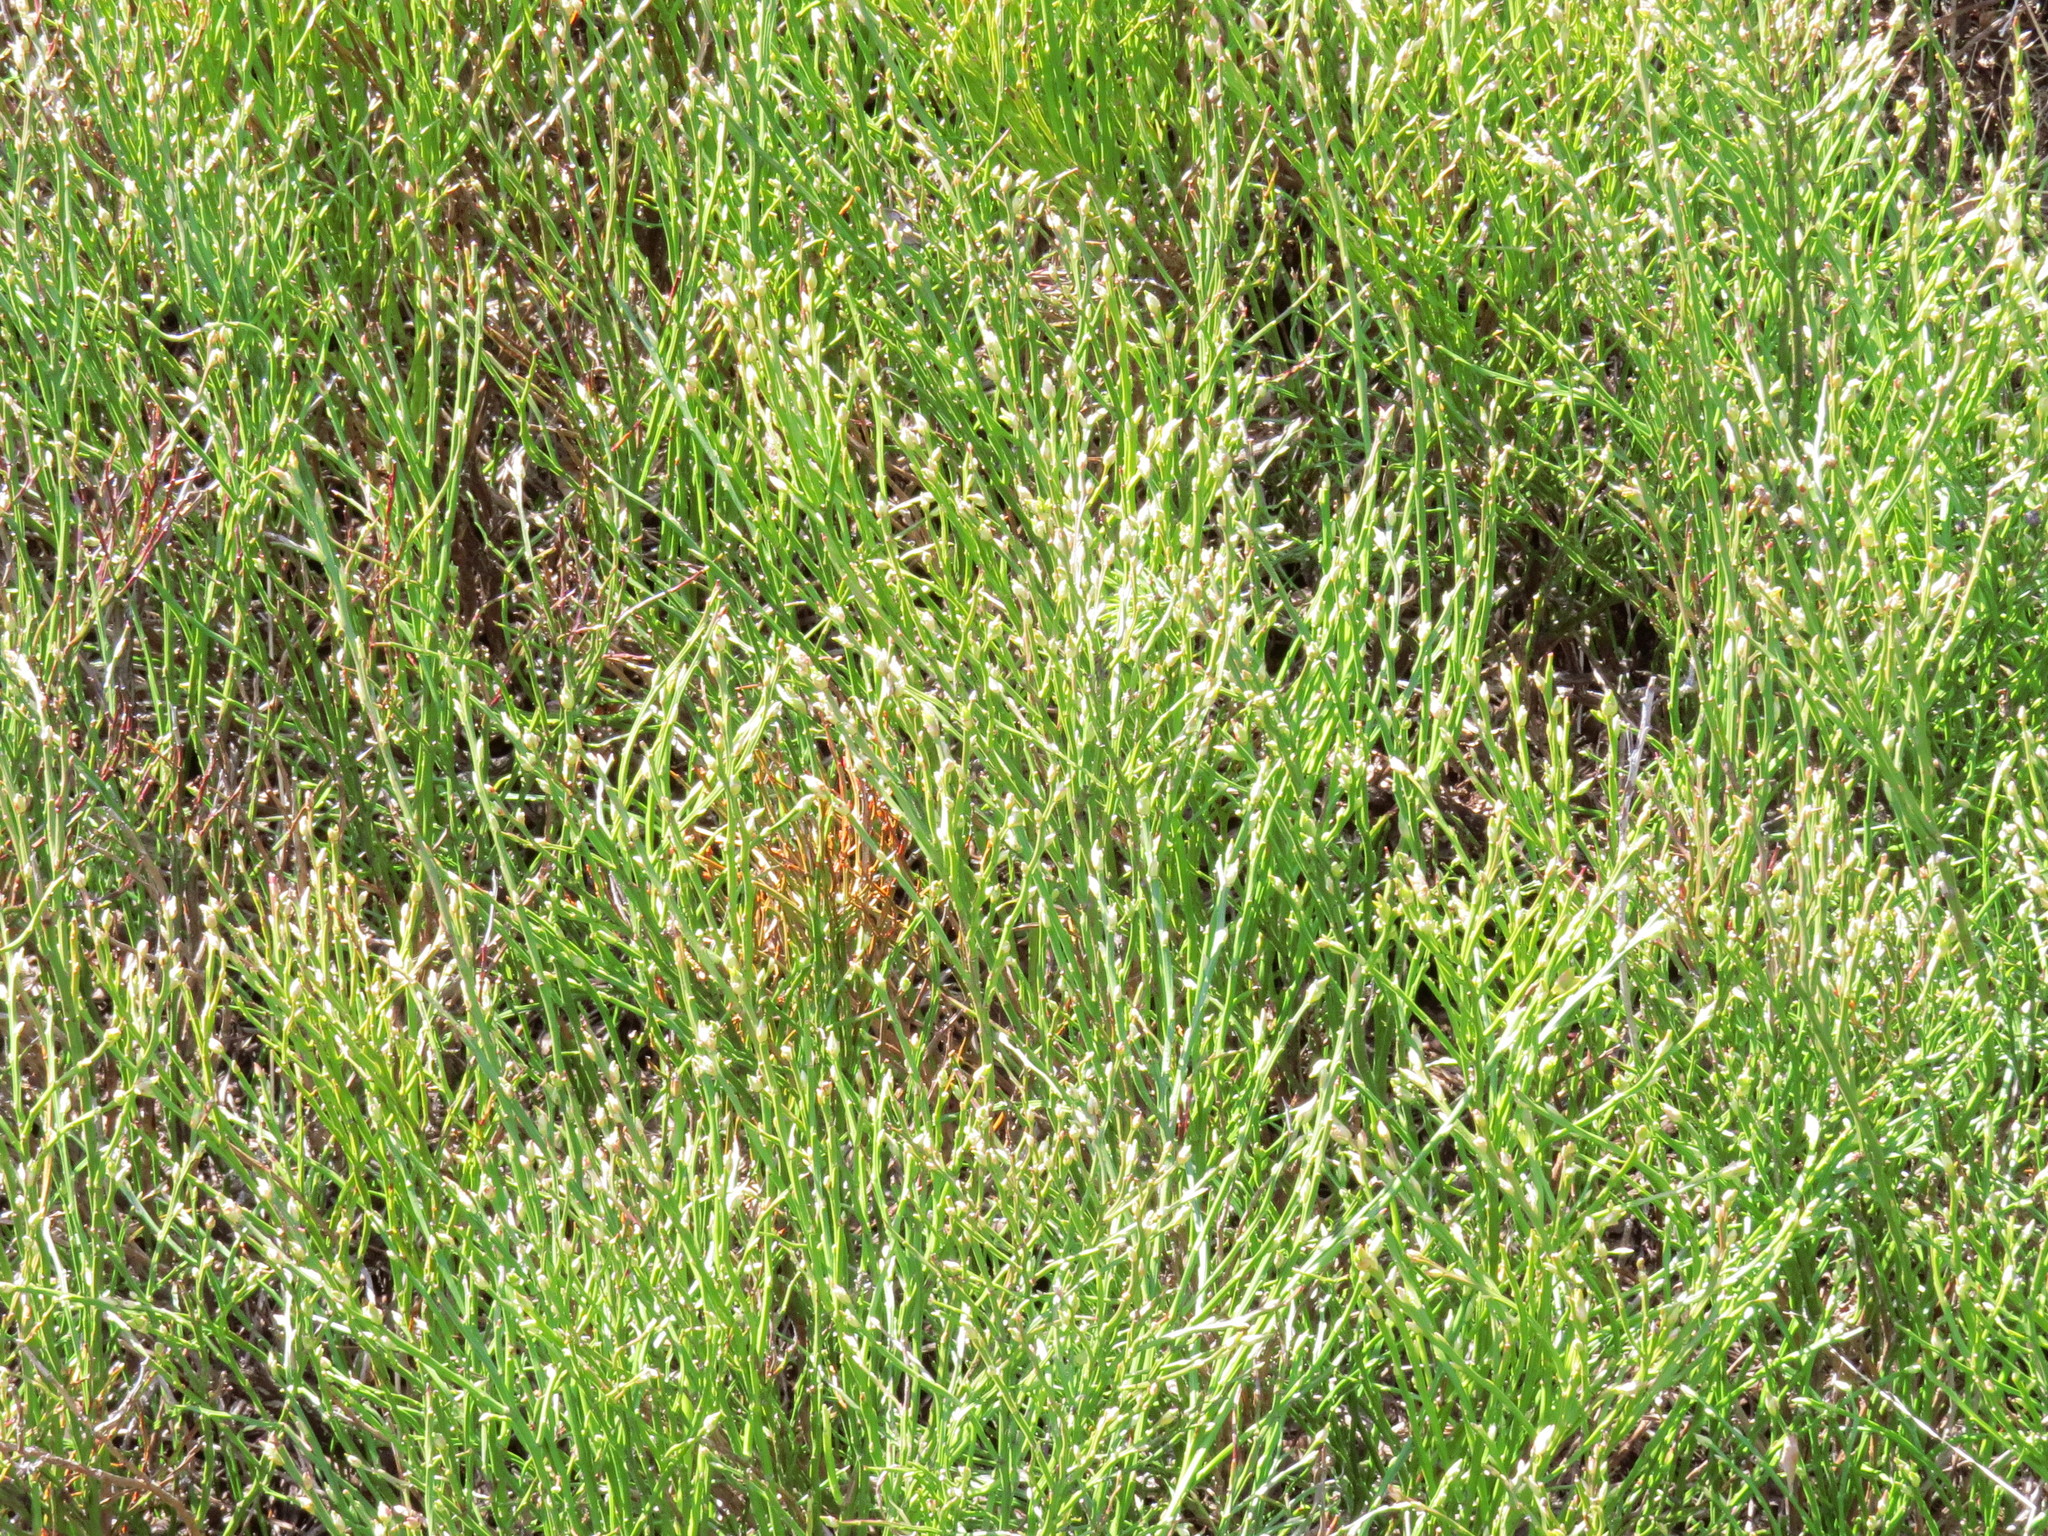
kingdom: Plantae
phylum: Tracheophyta
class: Magnoliopsida
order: Ericales
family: Ericaceae
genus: Vaccinium
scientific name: Vaccinium myrtillus
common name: Bilberry
